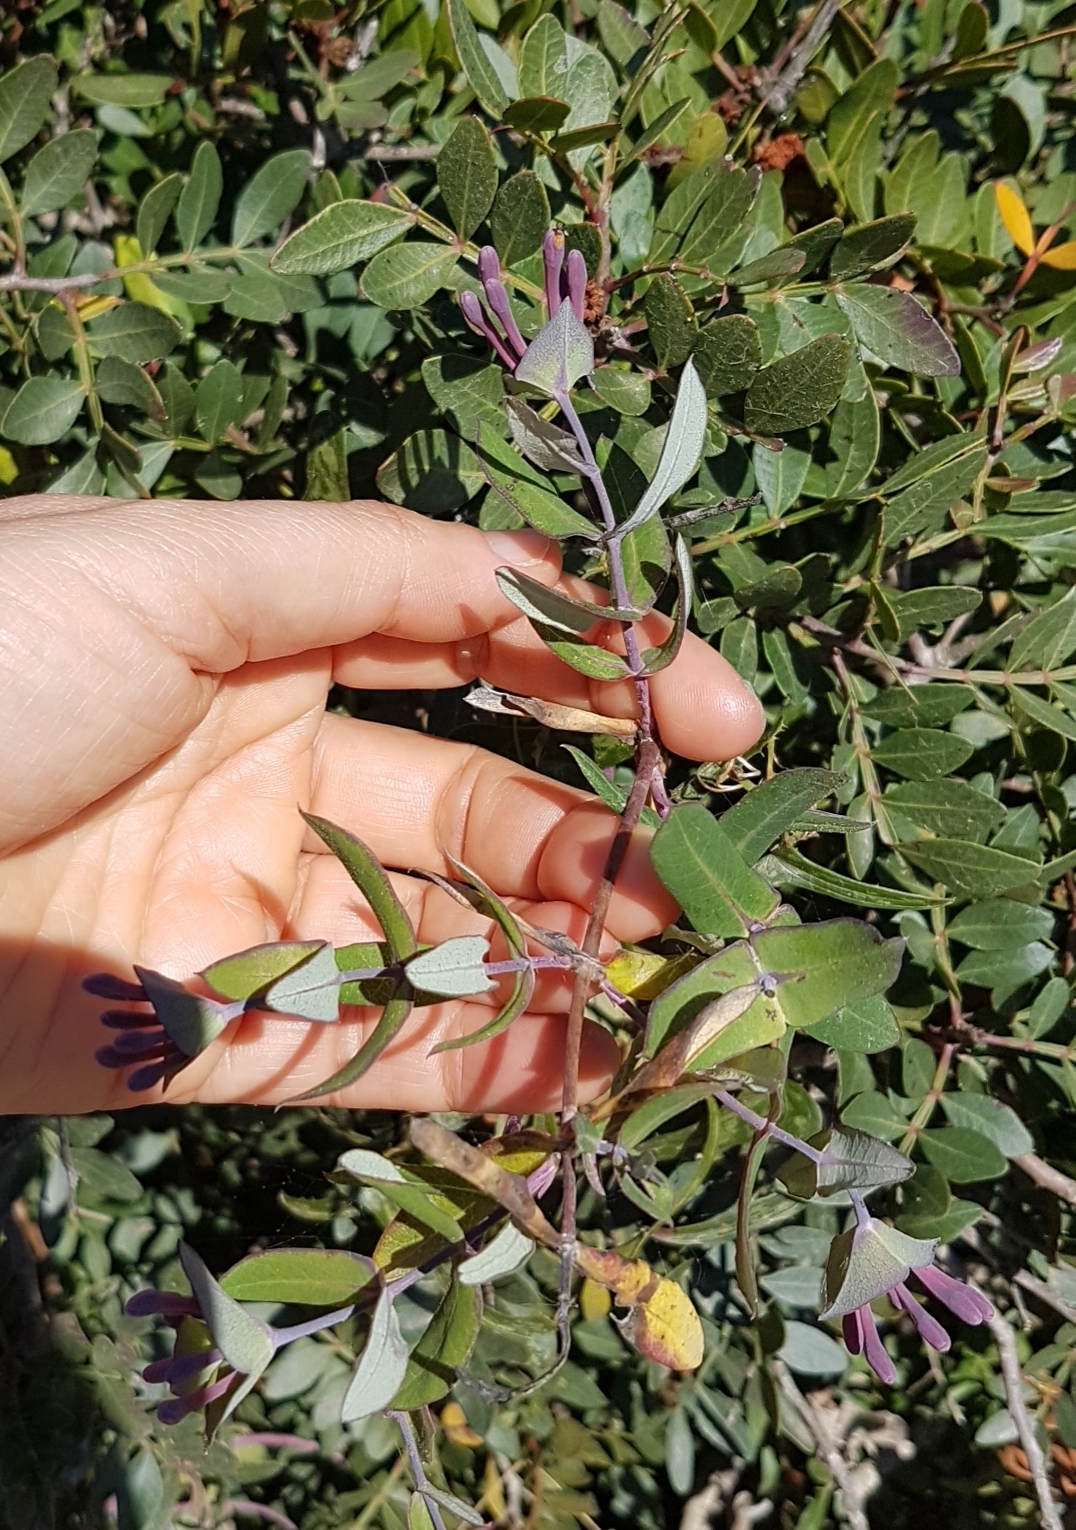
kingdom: Plantae
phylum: Tracheophyta
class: Magnoliopsida
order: Dipsacales
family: Caprifoliaceae
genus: Lonicera
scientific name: Lonicera implexa
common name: Minorca honeysuckle
